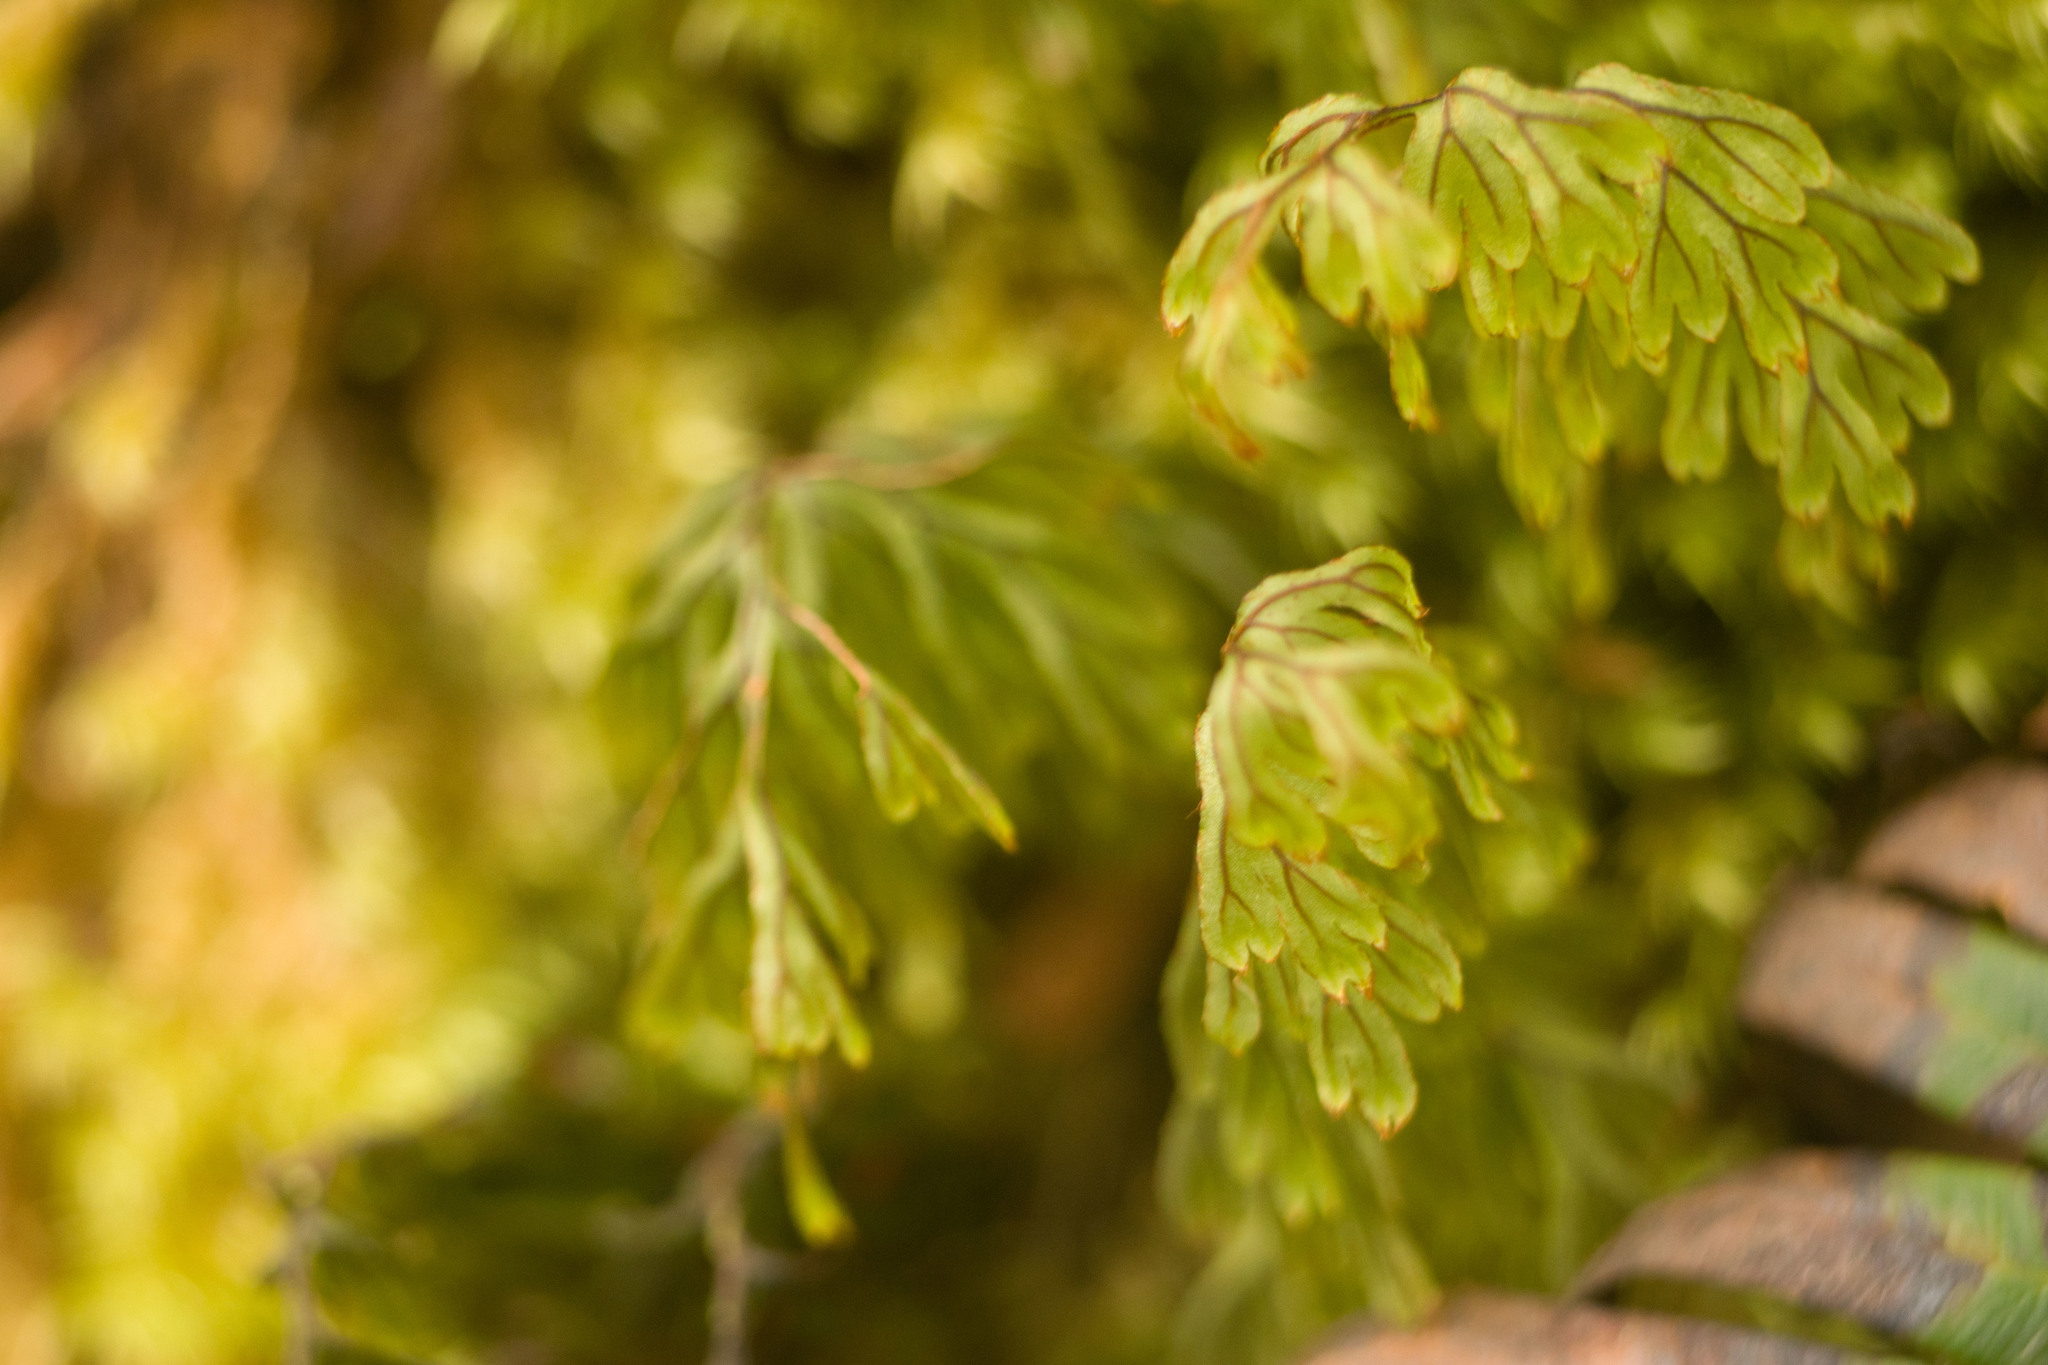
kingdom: Plantae
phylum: Tracheophyta
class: Polypodiopsida
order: Hymenophyllales
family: Hymenophyllaceae
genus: Hymenophyllum
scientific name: Hymenophyllum lanceolatum
